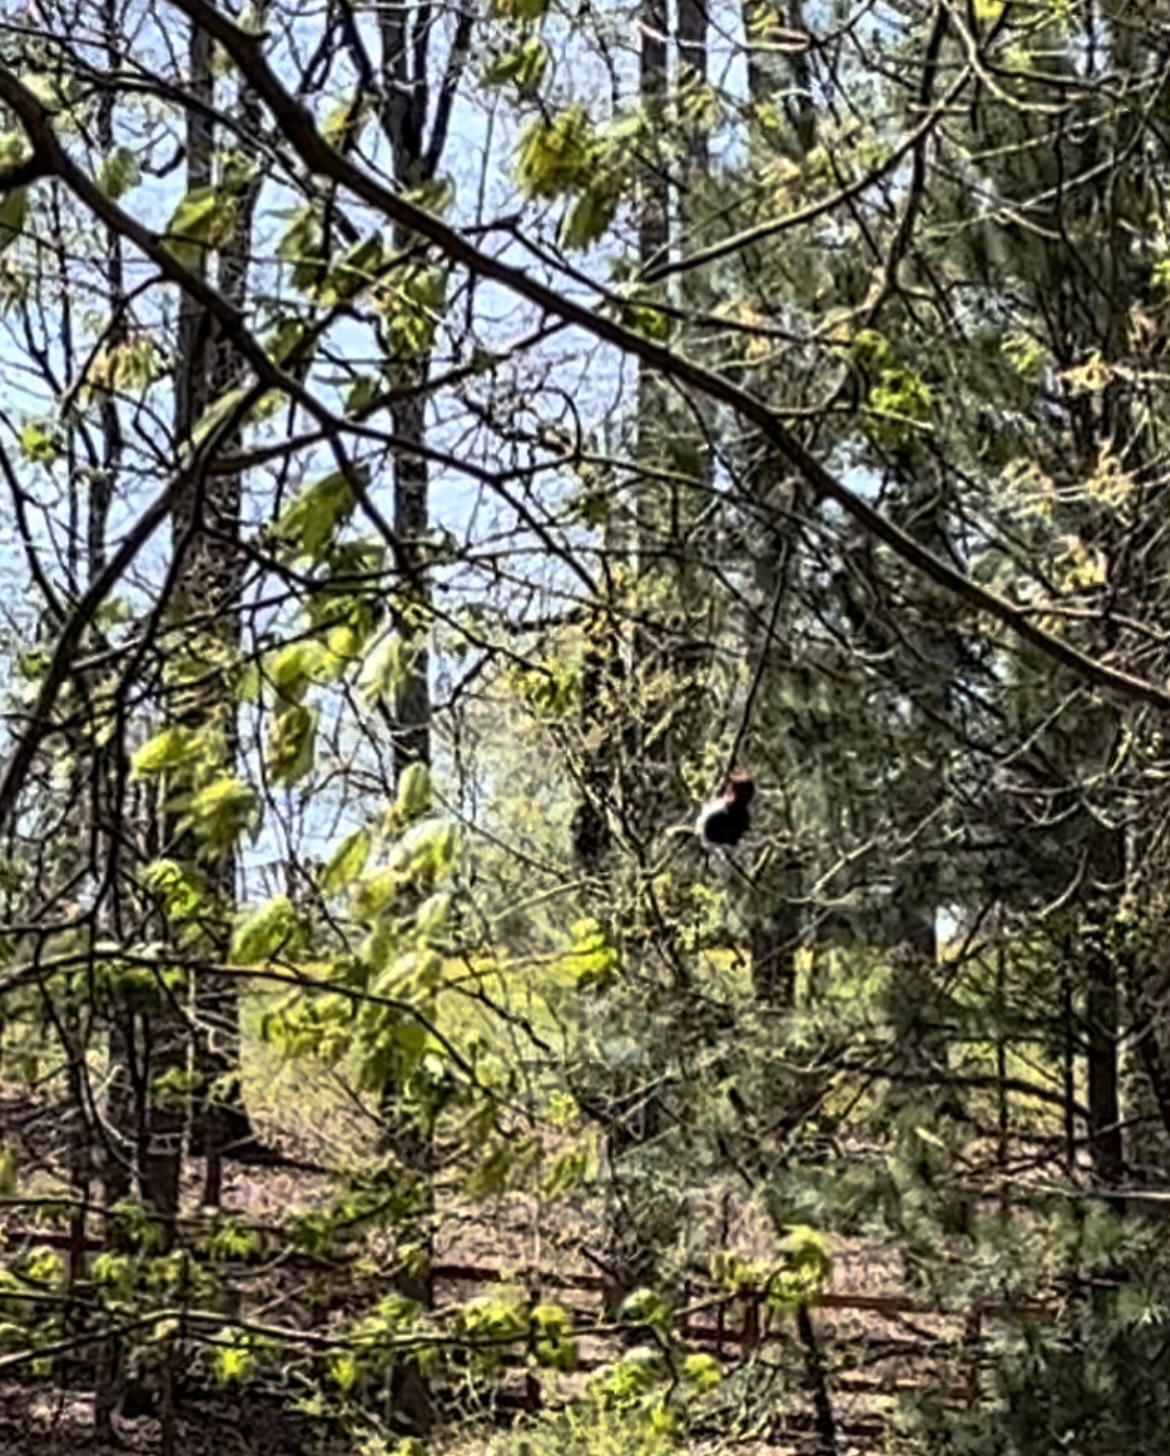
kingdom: Animalia
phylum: Chordata
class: Aves
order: Piciformes
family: Picidae
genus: Melanerpes
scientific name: Melanerpes erythrocephalus
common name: Red-headed woodpecker
